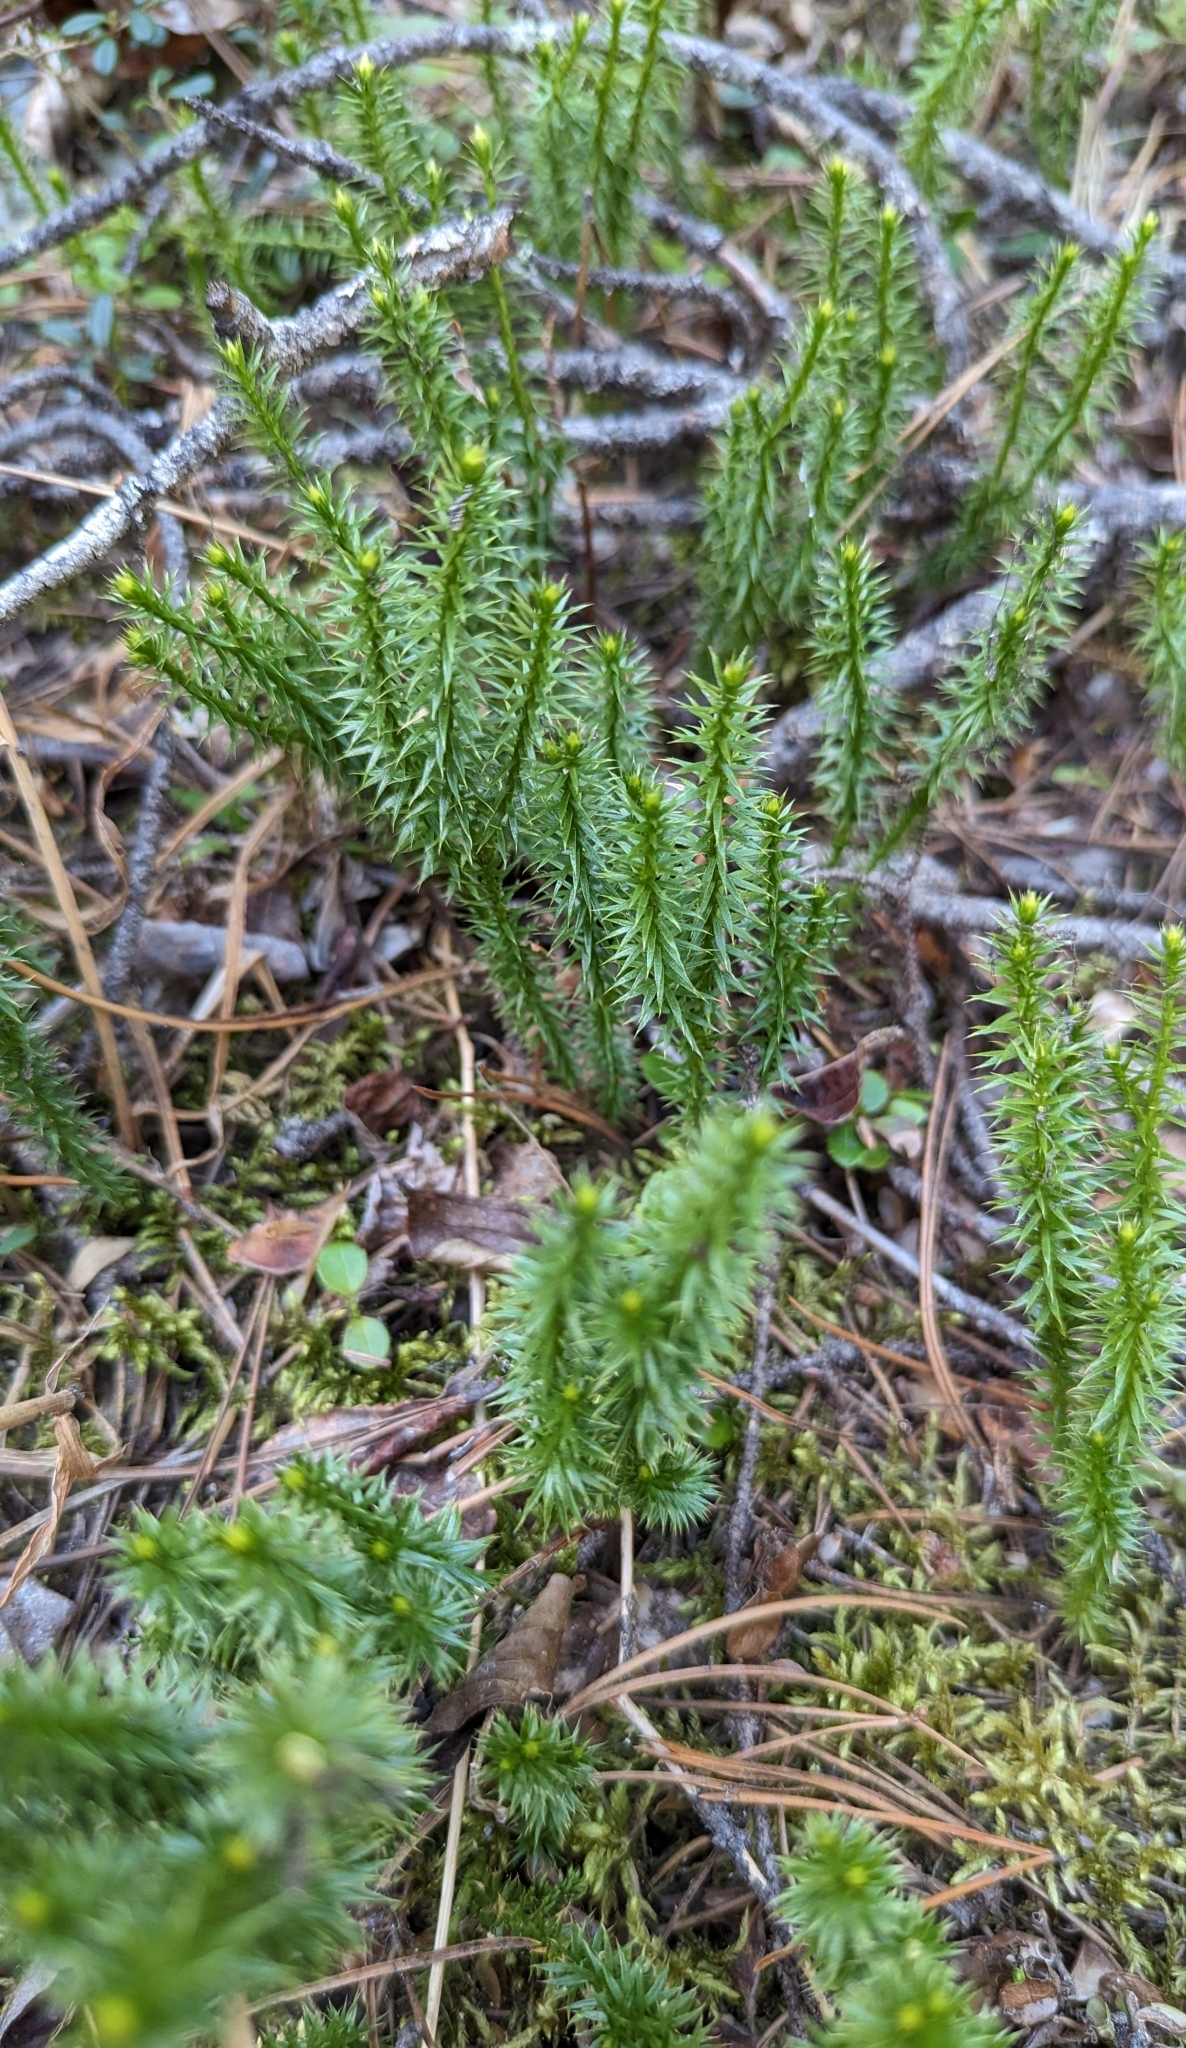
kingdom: Plantae
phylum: Tracheophyta
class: Lycopodiopsida
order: Lycopodiales
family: Lycopodiaceae
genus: Spinulum
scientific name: Spinulum annotinum
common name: Interrupted club-moss
